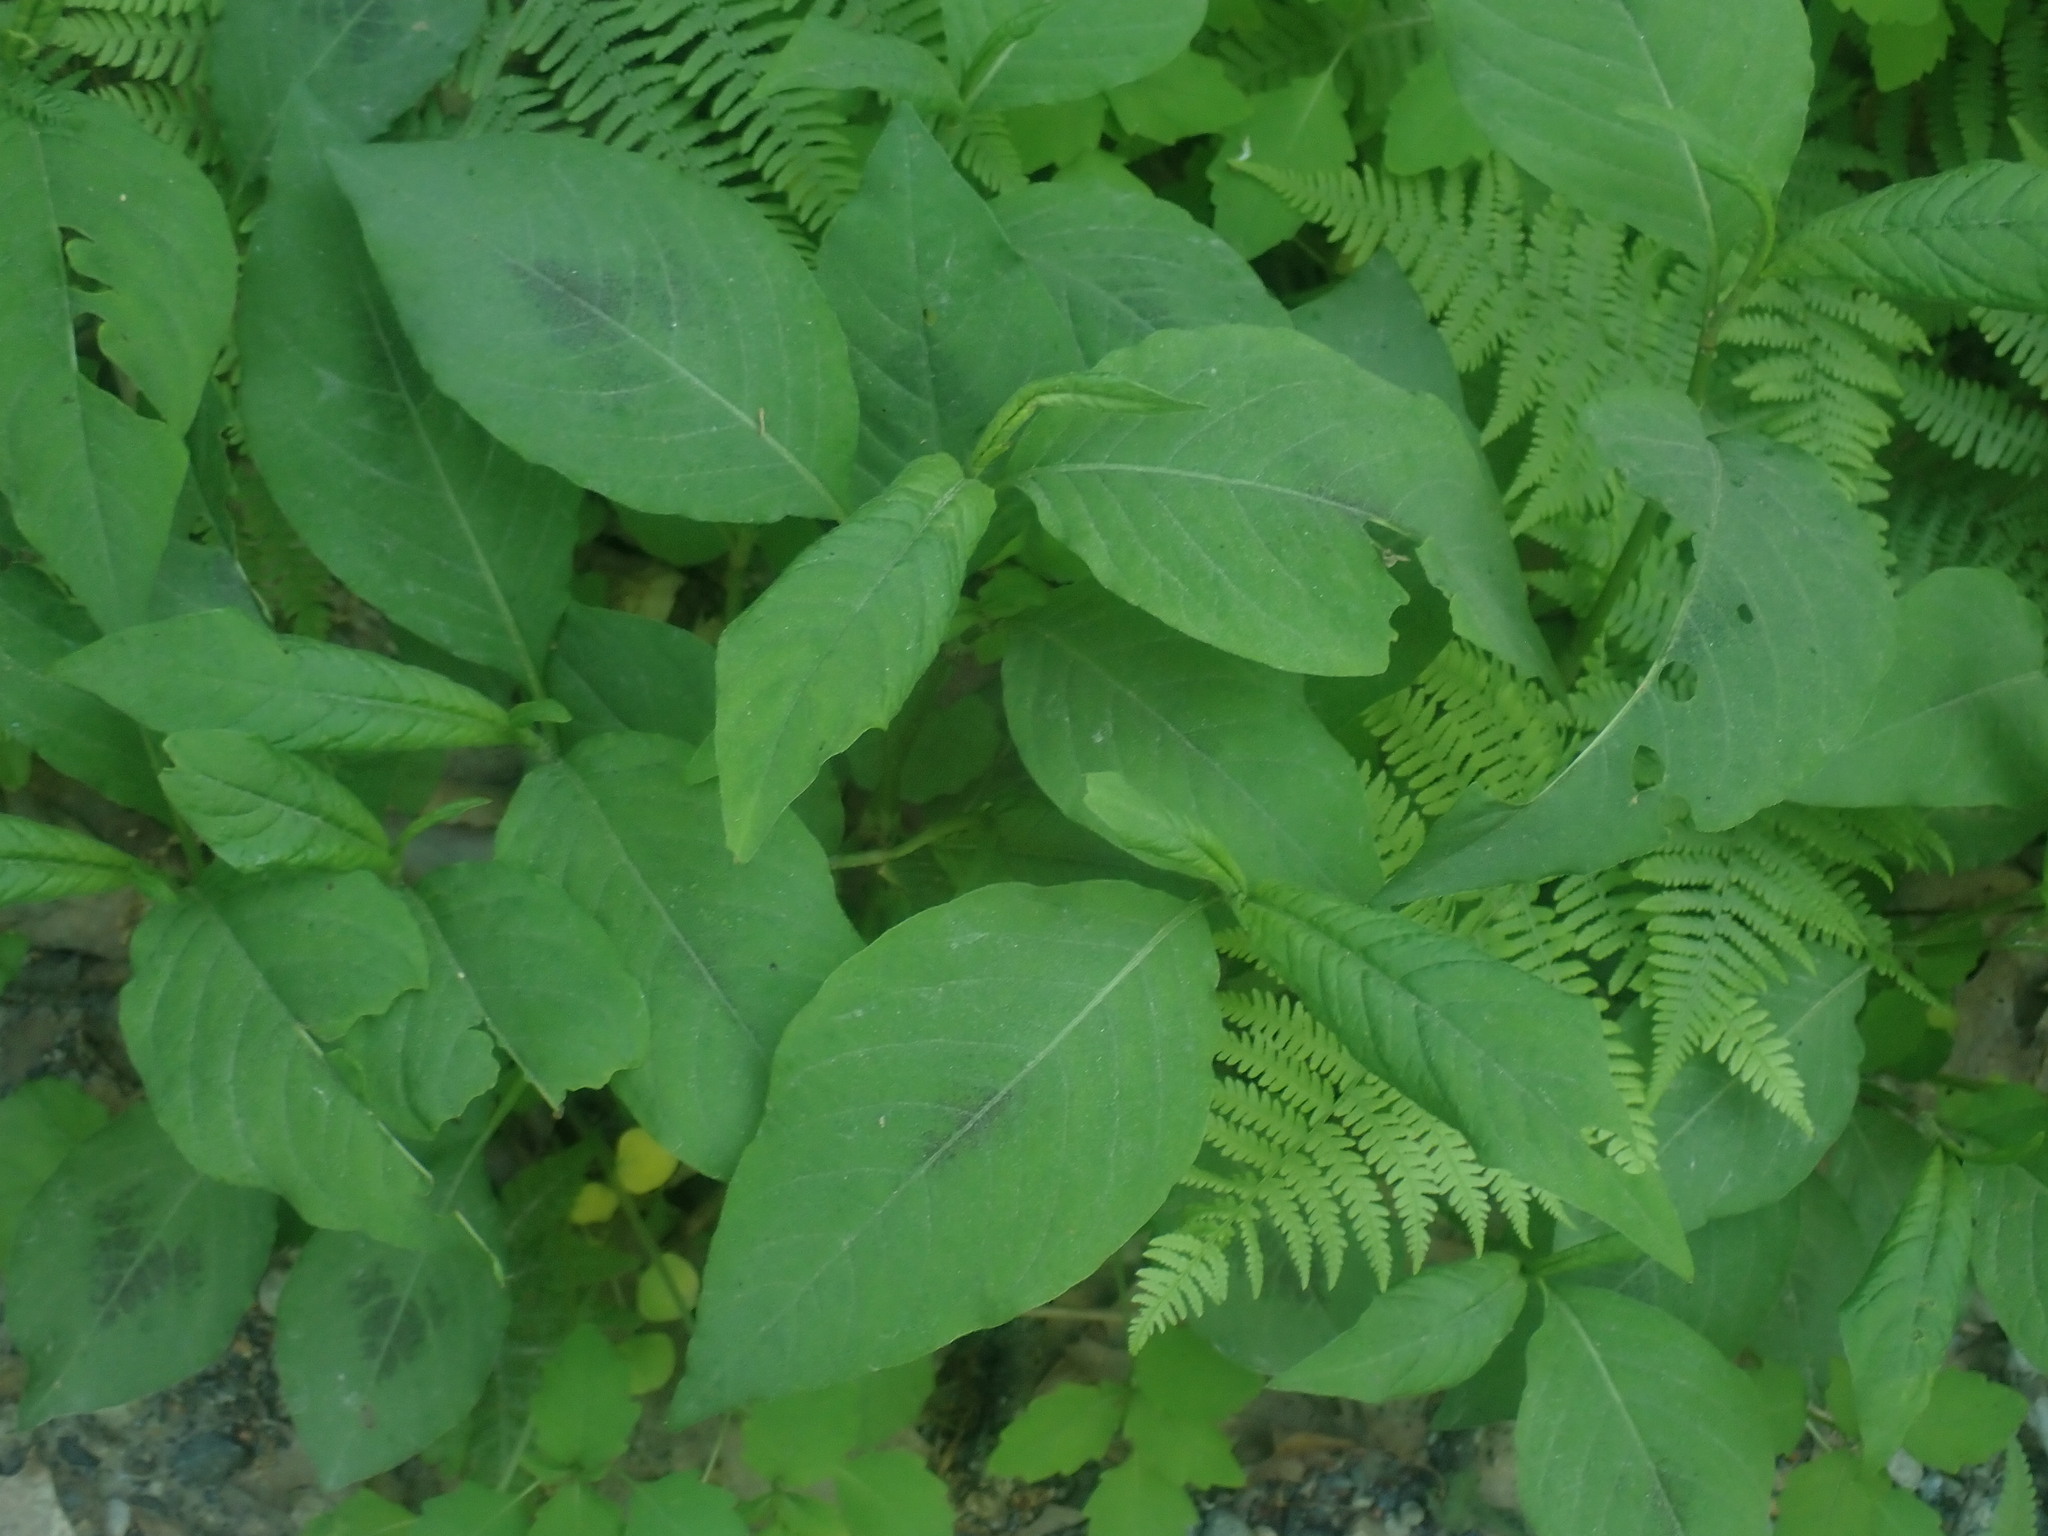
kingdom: Plantae
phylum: Tracheophyta
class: Magnoliopsida
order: Caryophyllales
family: Polygonaceae
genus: Persicaria
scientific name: Persicaria virginiana
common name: Jumpseed
